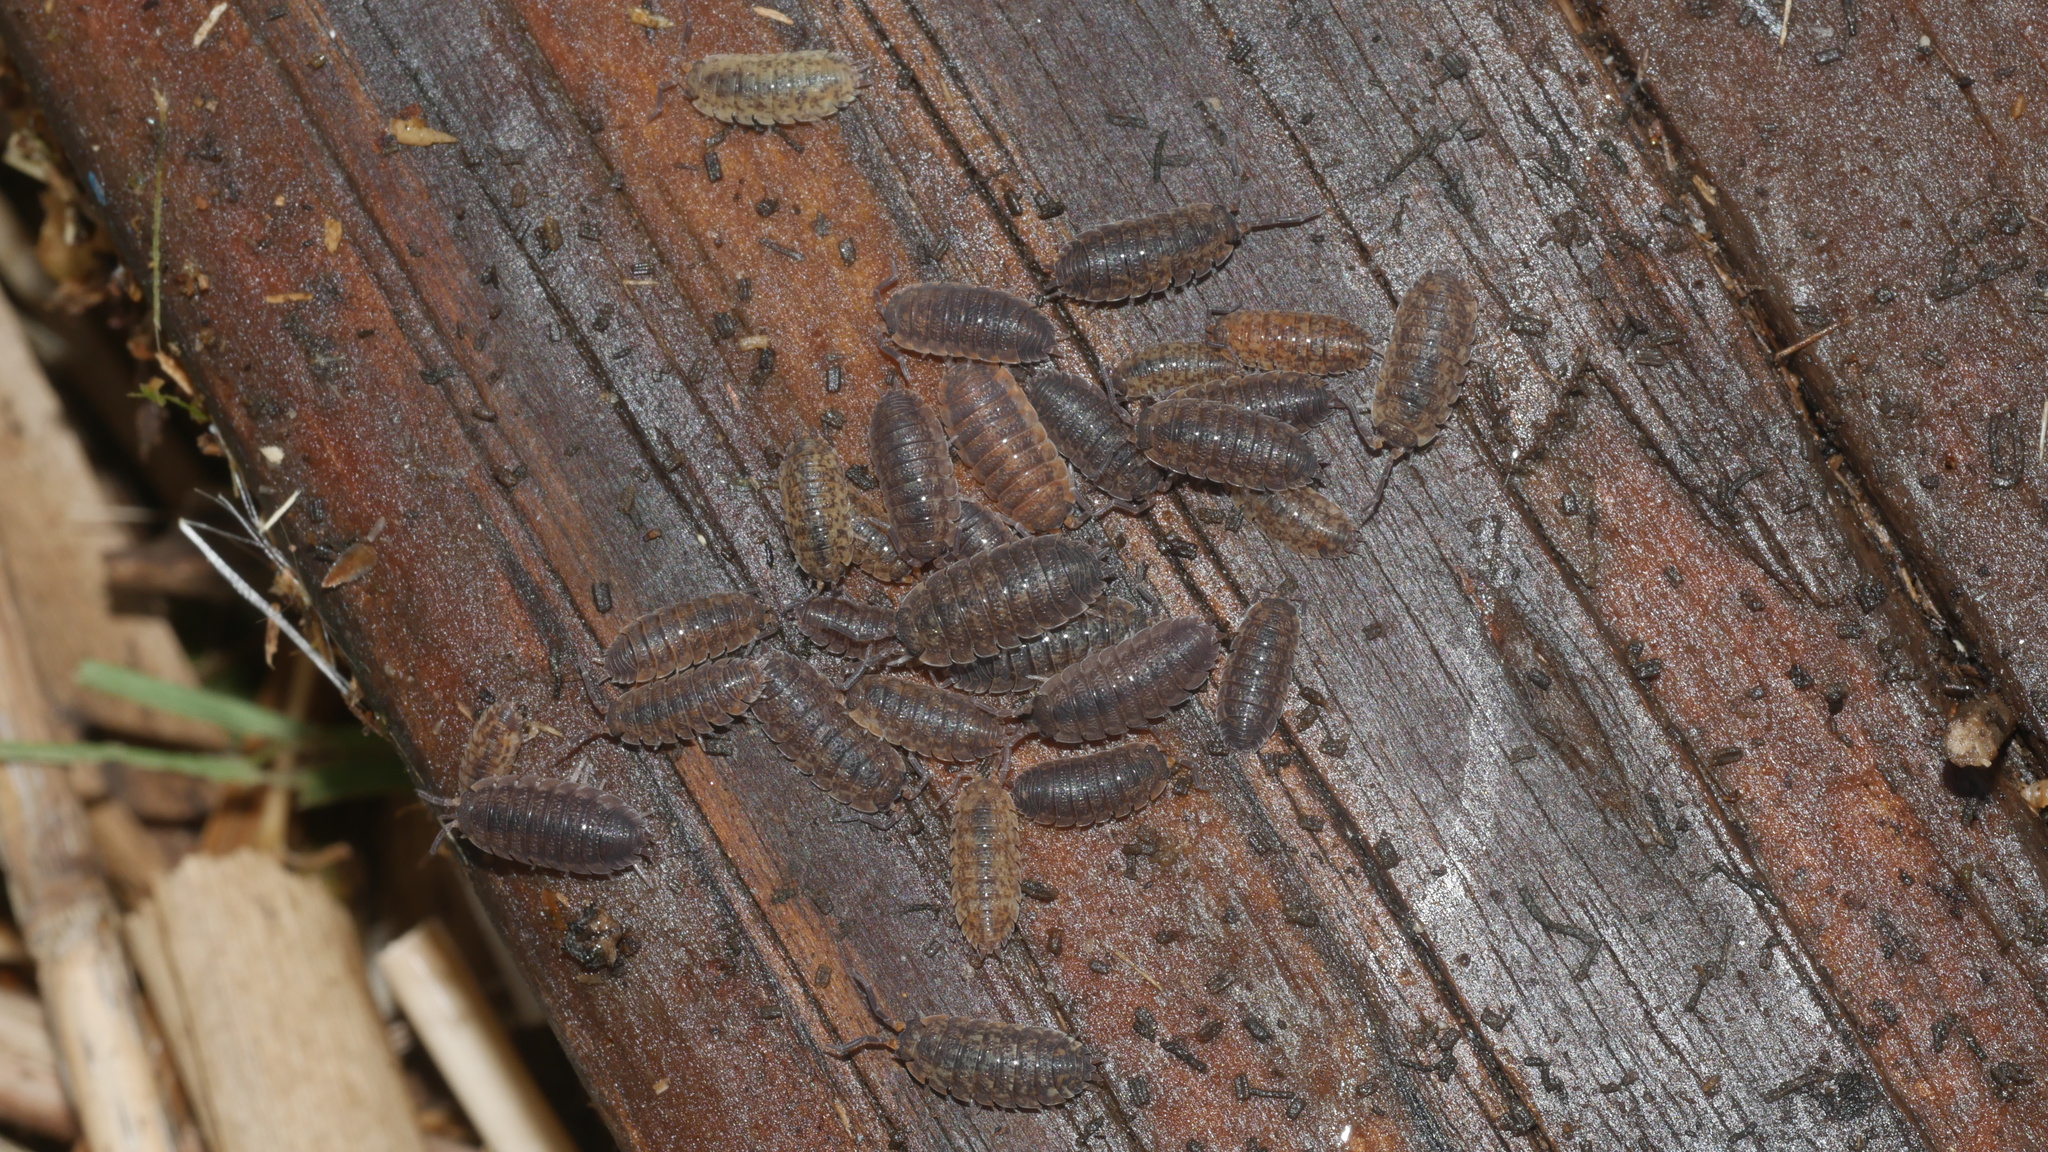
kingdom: Animalia
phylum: Arthropoda
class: Malacostraca
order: Isopoda
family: Porcellionidae
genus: Porcellio
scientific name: Porcellio scaber
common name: Common rough woodlouse
